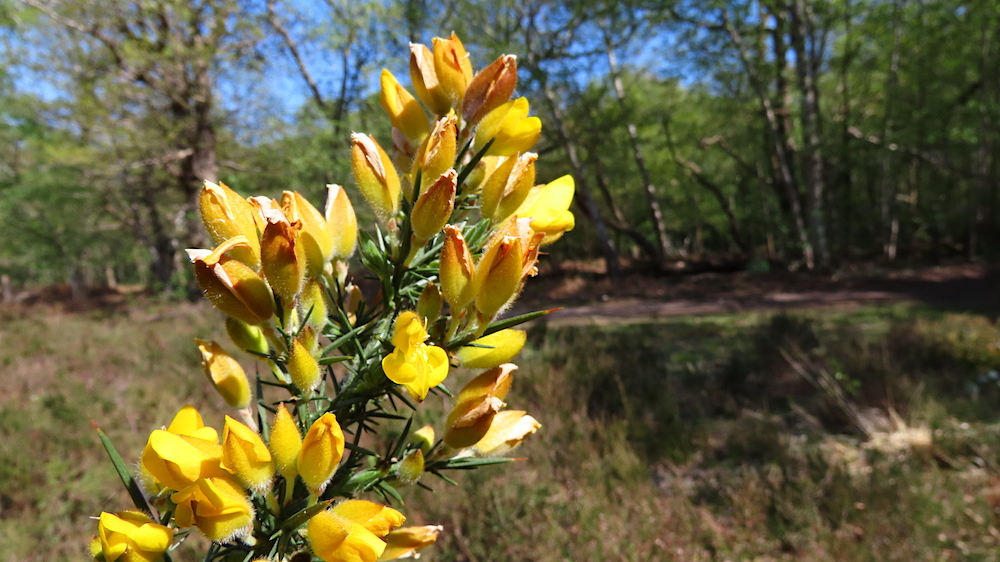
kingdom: Plantae
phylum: Tracheophyta
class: Magnoliopsida
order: Fabales
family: Fabaceae
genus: Ulex
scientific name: Ulex europaeus
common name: Common gorse
